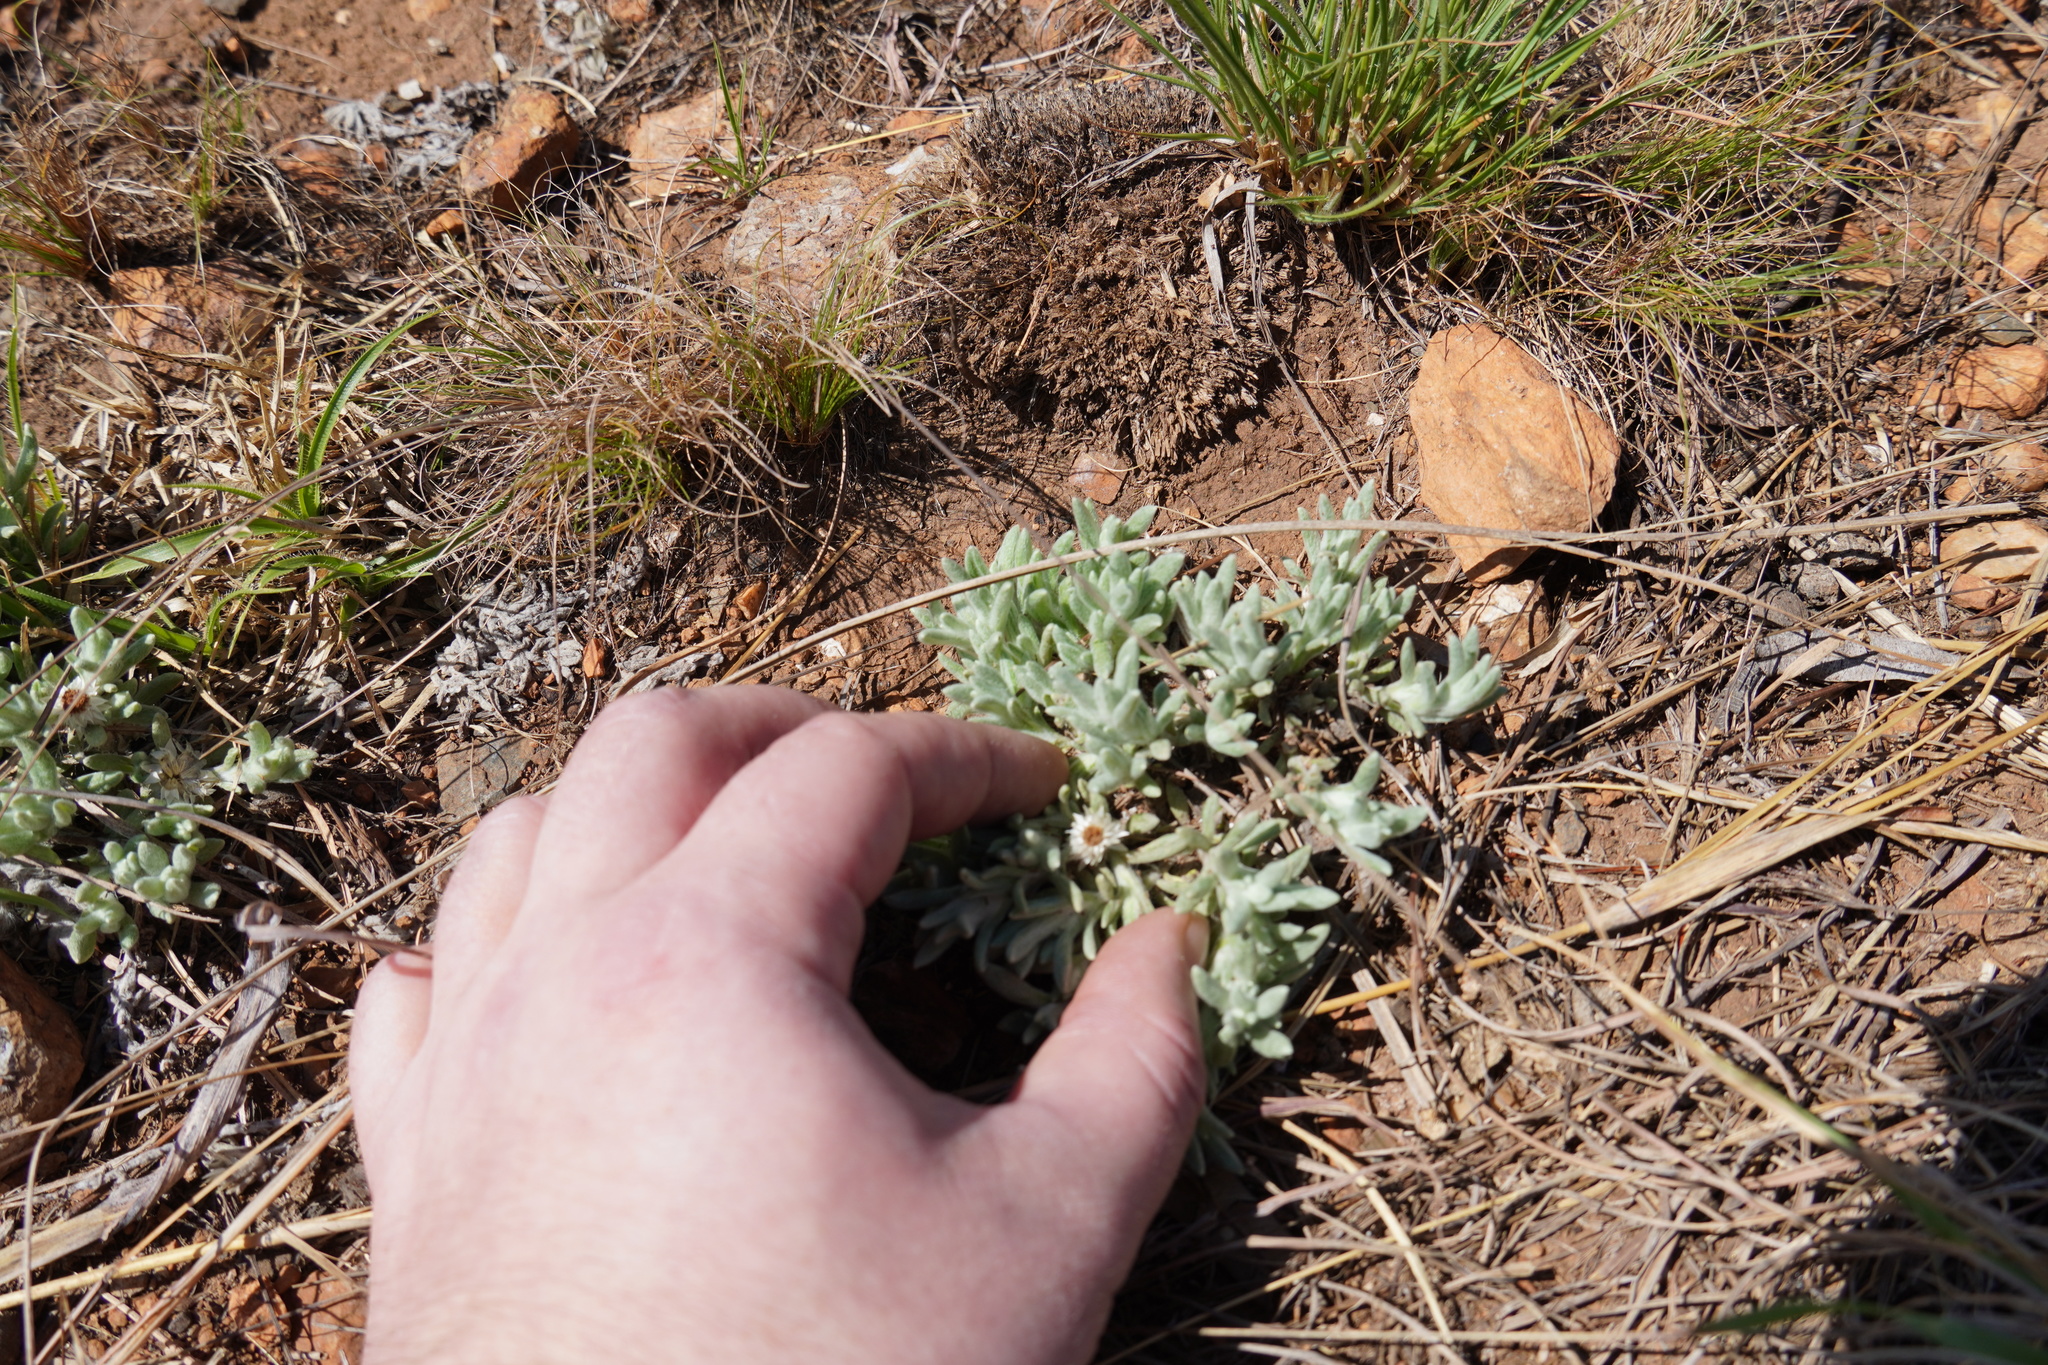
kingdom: Plantae
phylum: Tracheophyta
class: Magnoliopsida
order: Asterales
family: Asteraceae
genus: Helichrysum
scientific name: Helichrysum cerastioides
